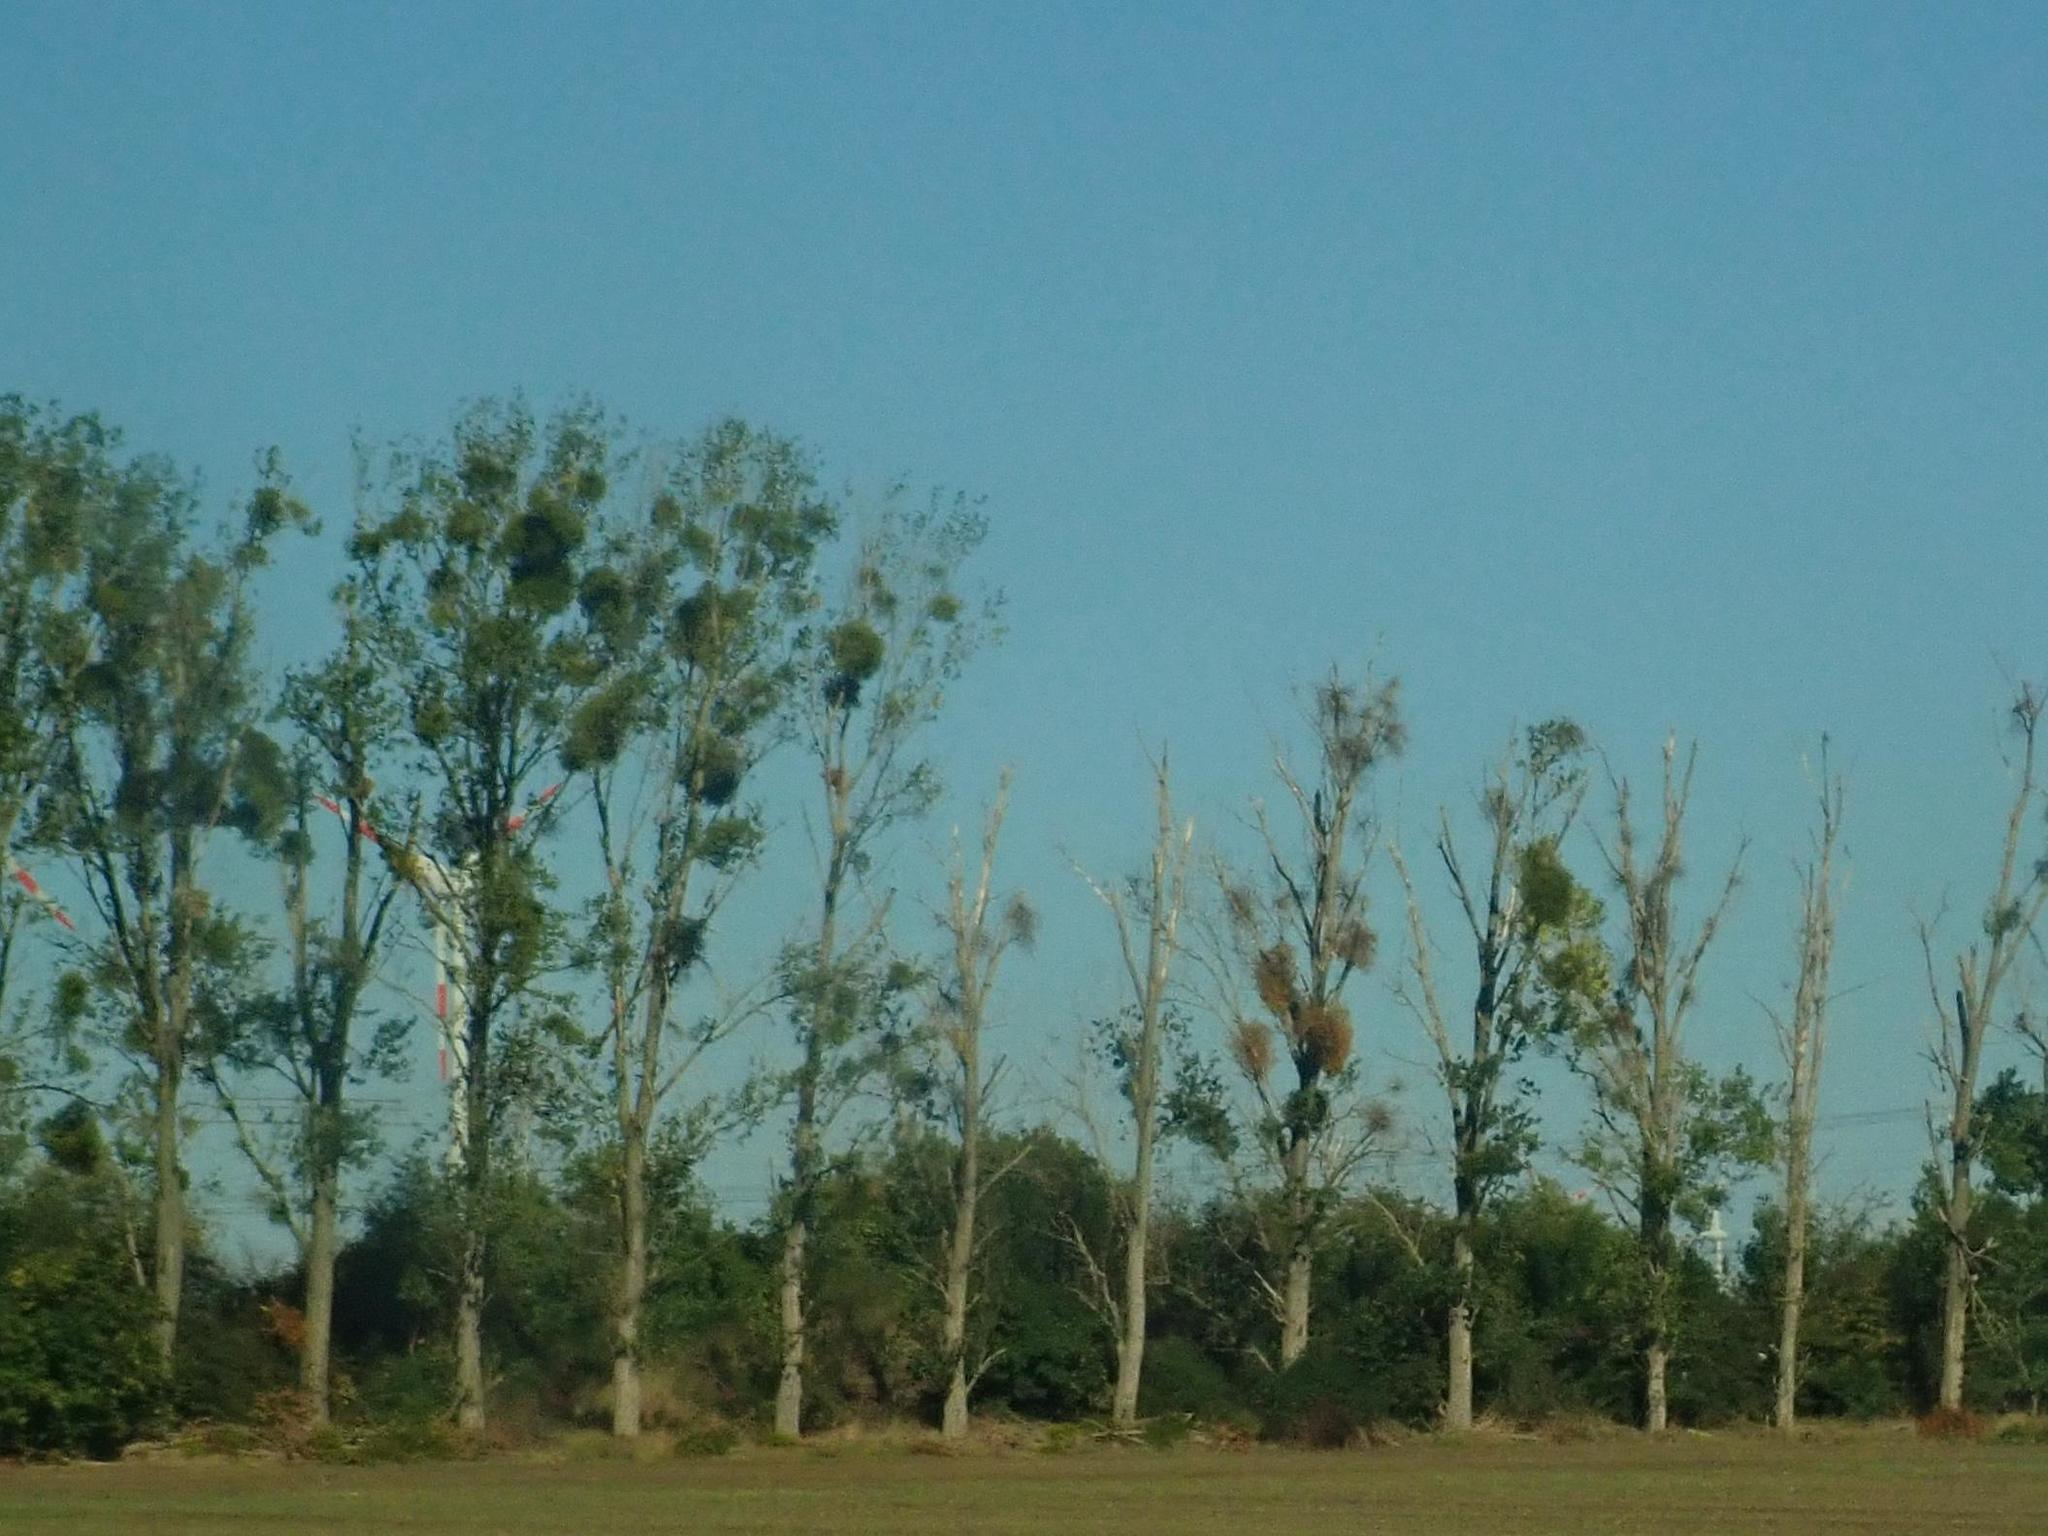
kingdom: Plantae
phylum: Tracheophyta
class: Magnoliopsida
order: Santalales
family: Viscaceae
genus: Viscum
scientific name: Viscum album
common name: Mistletoe
